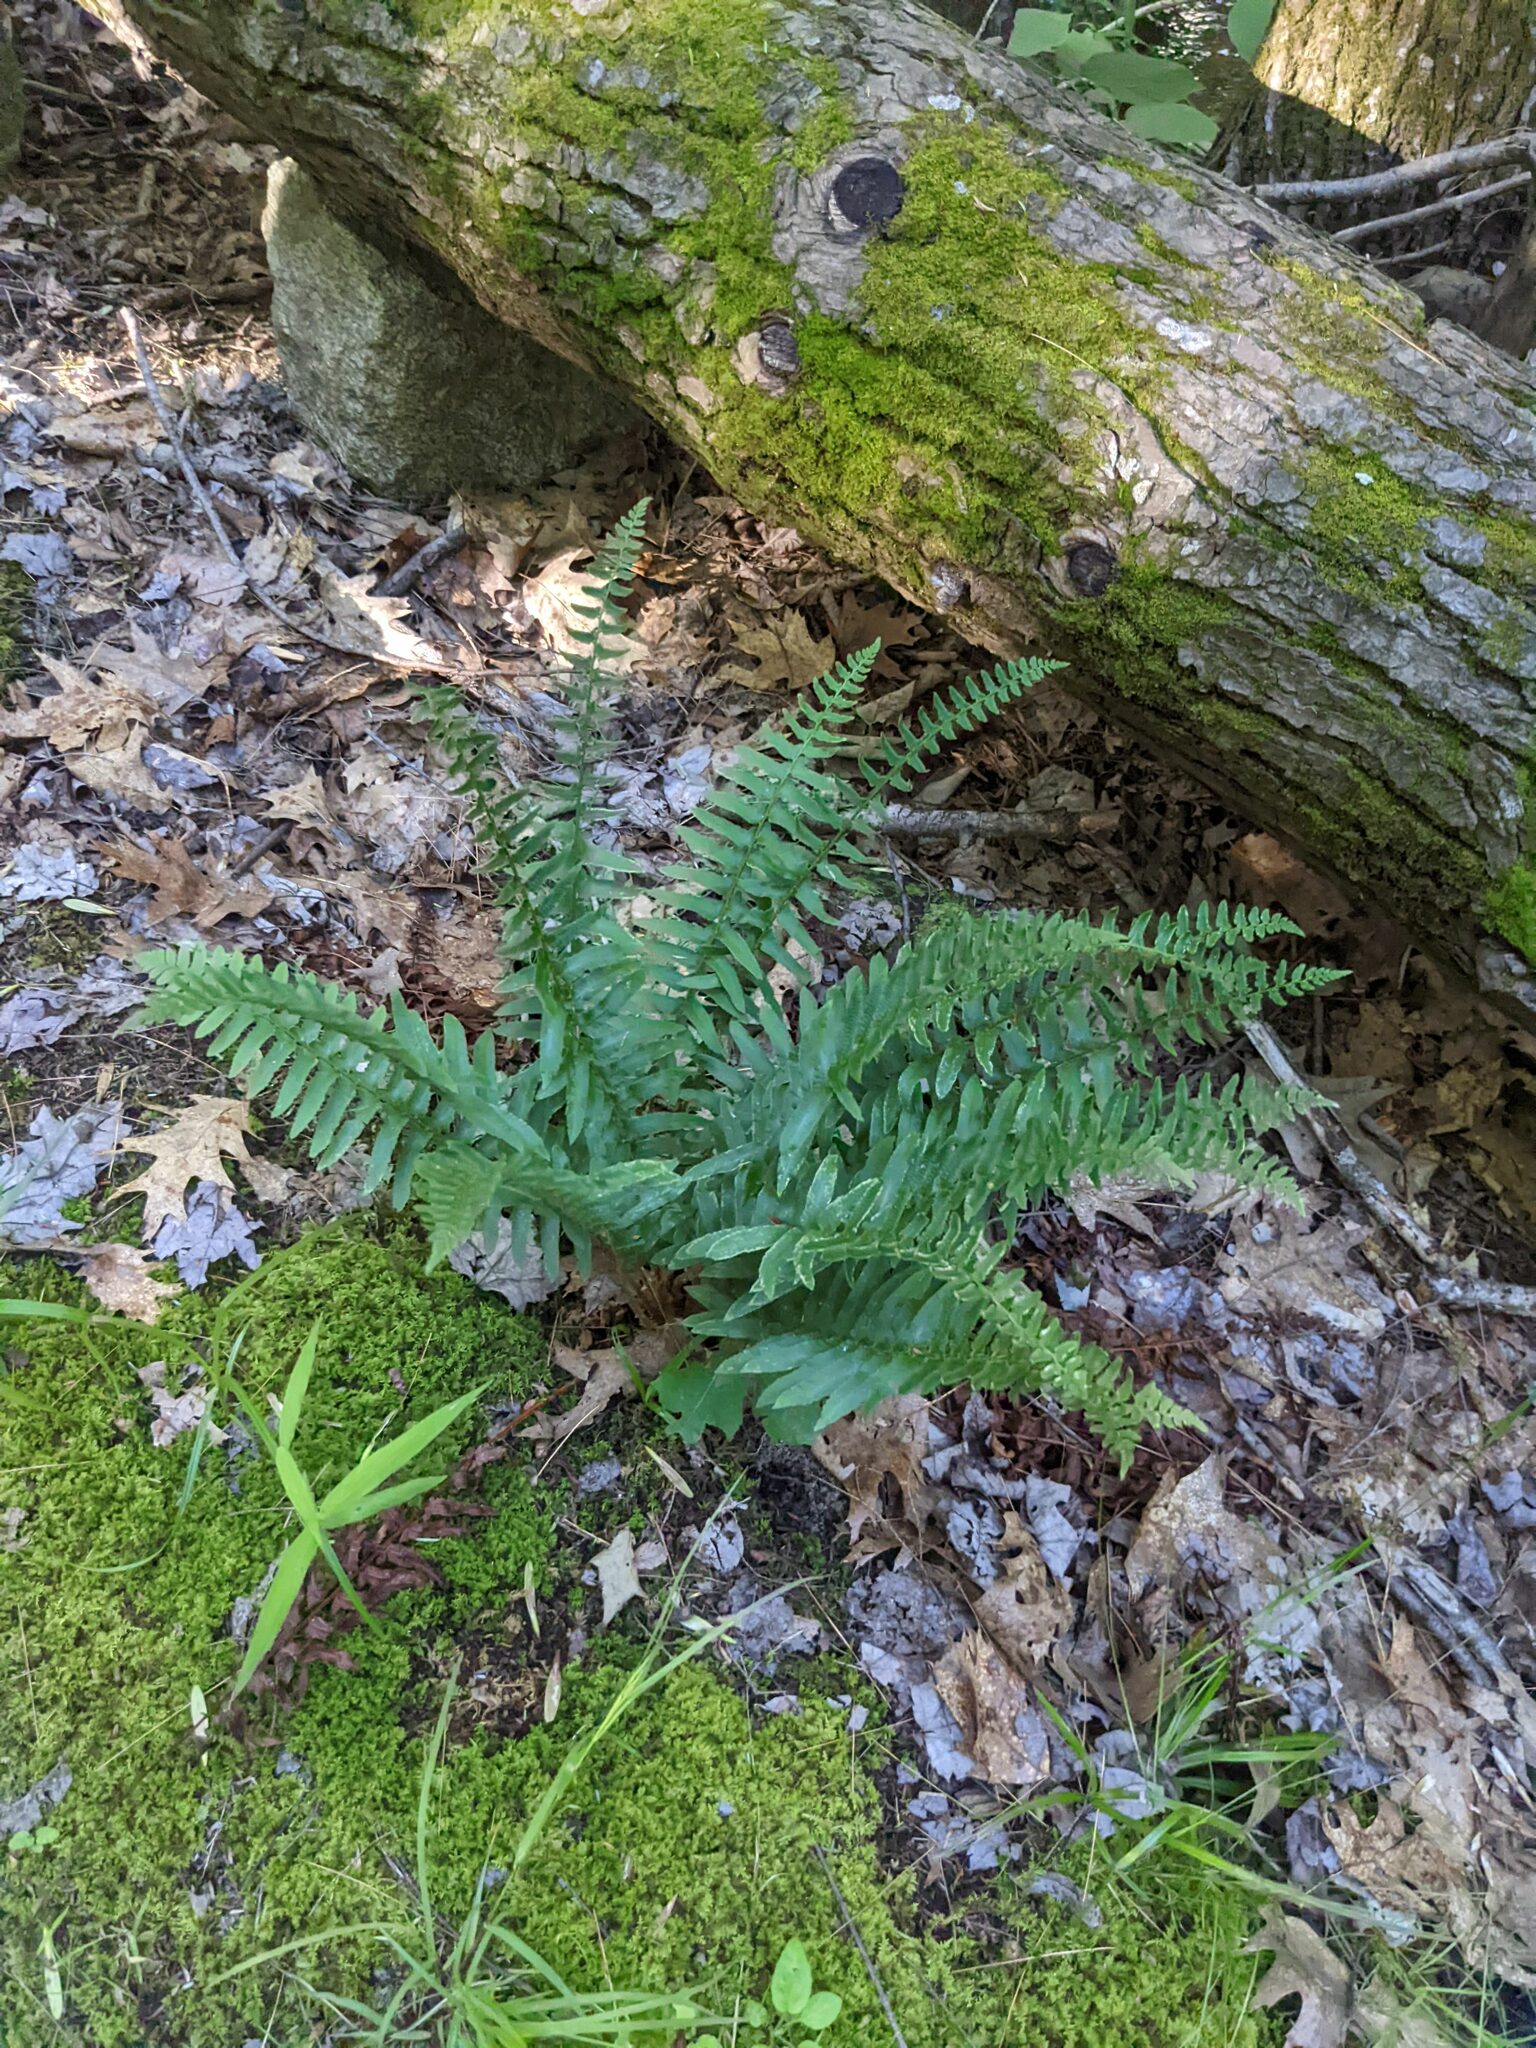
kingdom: Plantae
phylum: Tracheophyta
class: Polypodiopsida
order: Polypodiales
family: Dryopteridaceae
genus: Polystichum
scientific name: Polystichum acrostichoides
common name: Christmas fern
